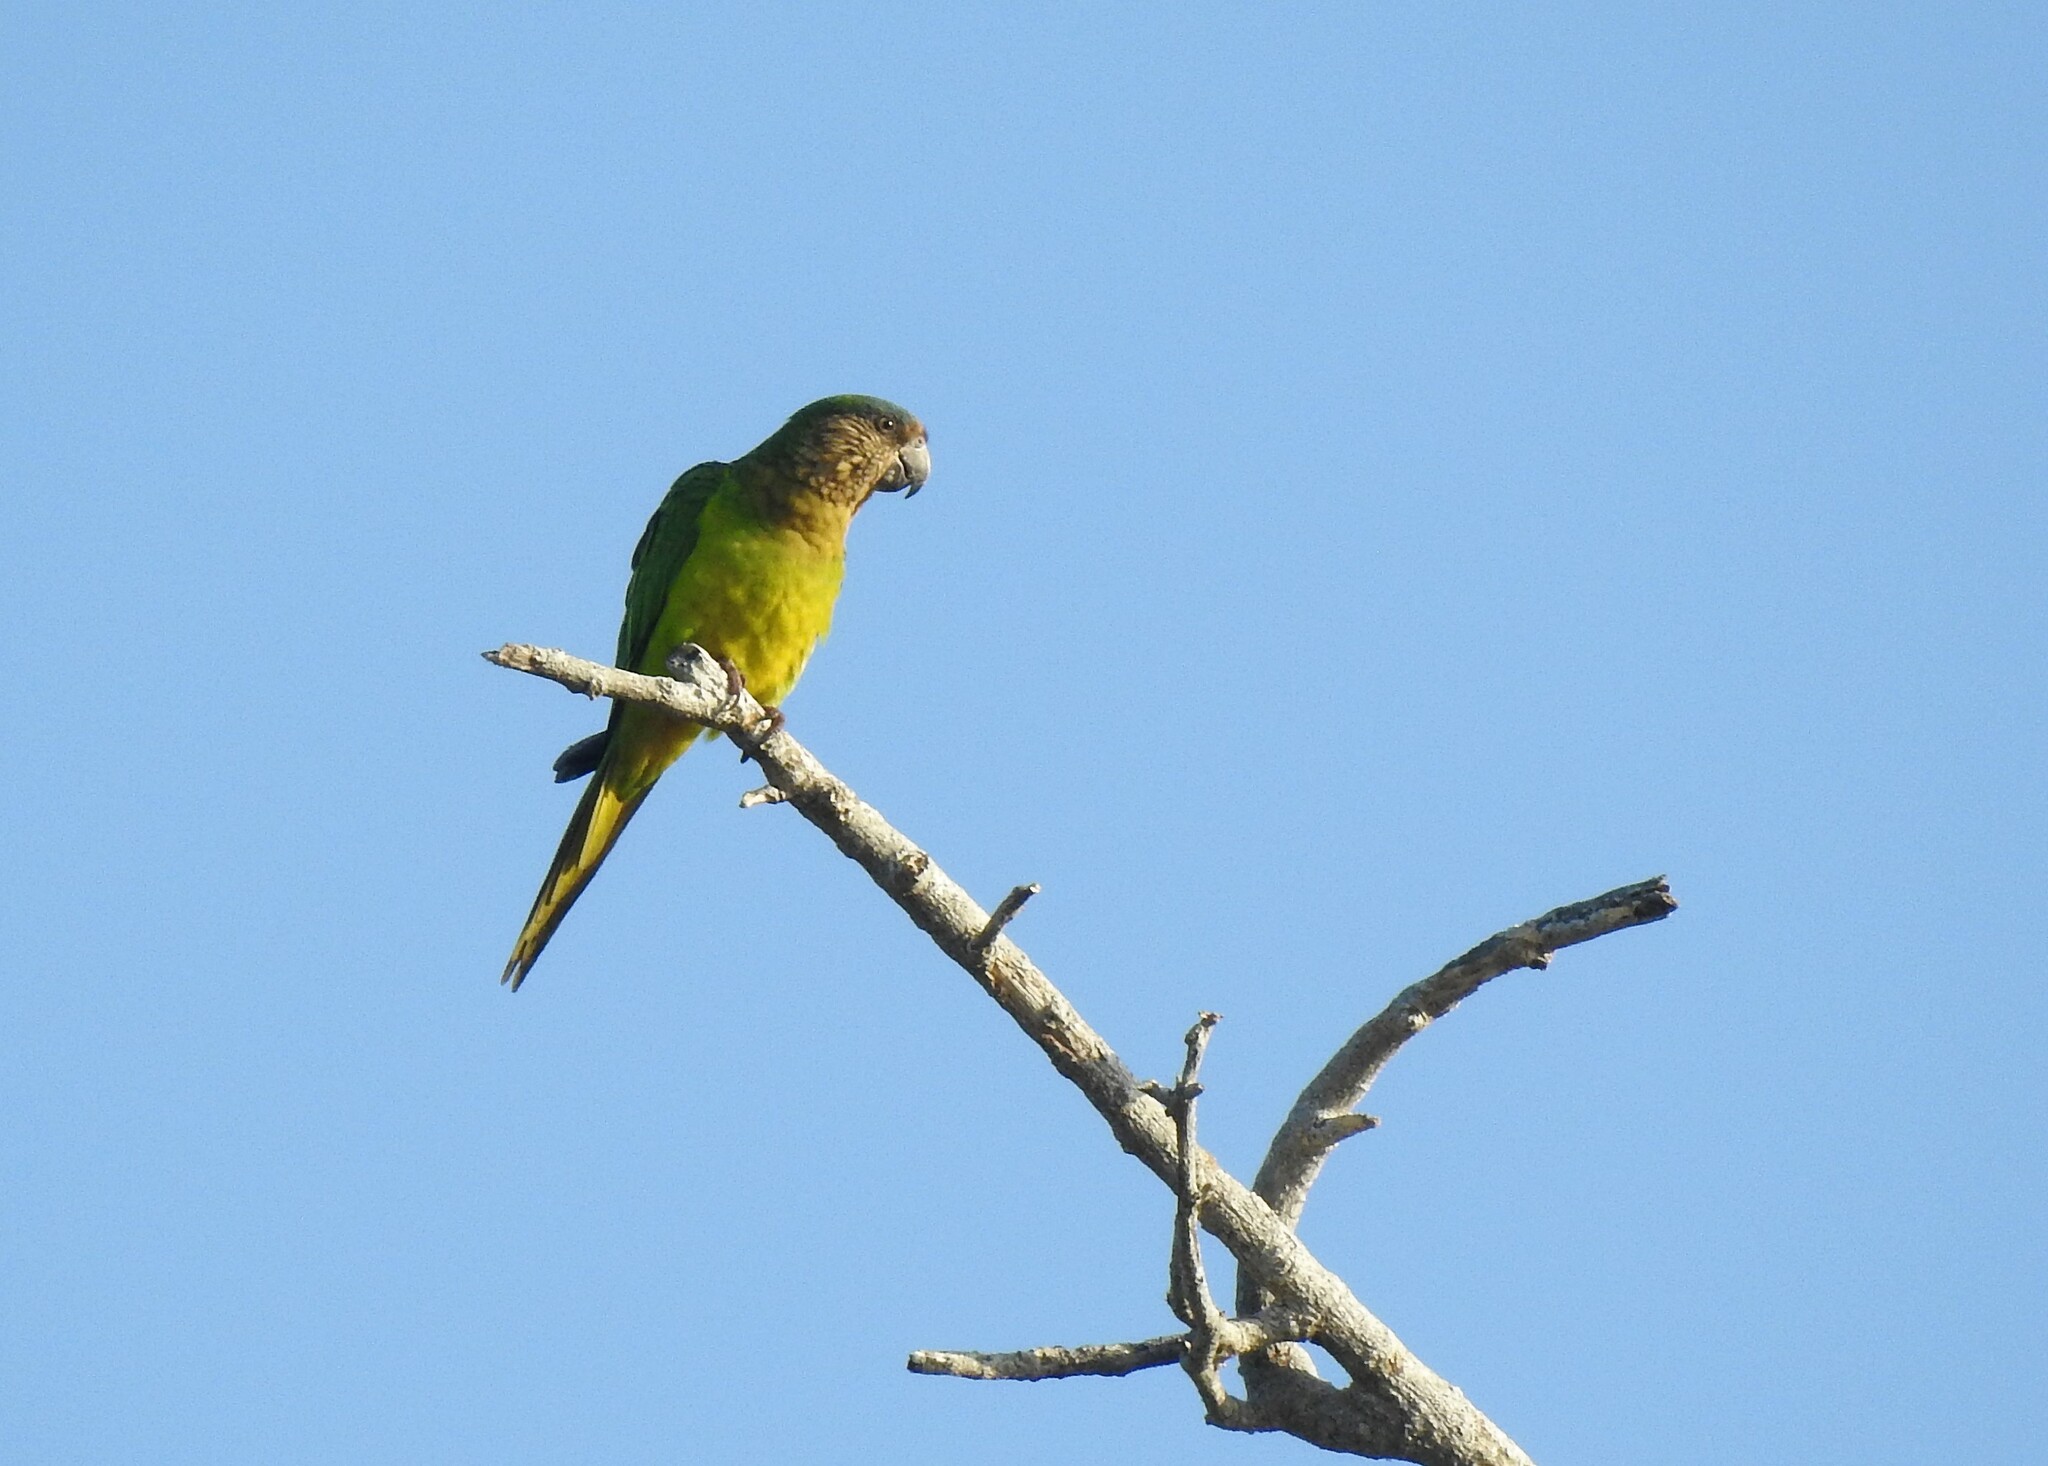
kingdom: Animalia
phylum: Chordata
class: Aves
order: Psittaciformes
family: Psittacidae
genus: Aratinga
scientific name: Aratinga pertinax
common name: Brown-throated parakeet
